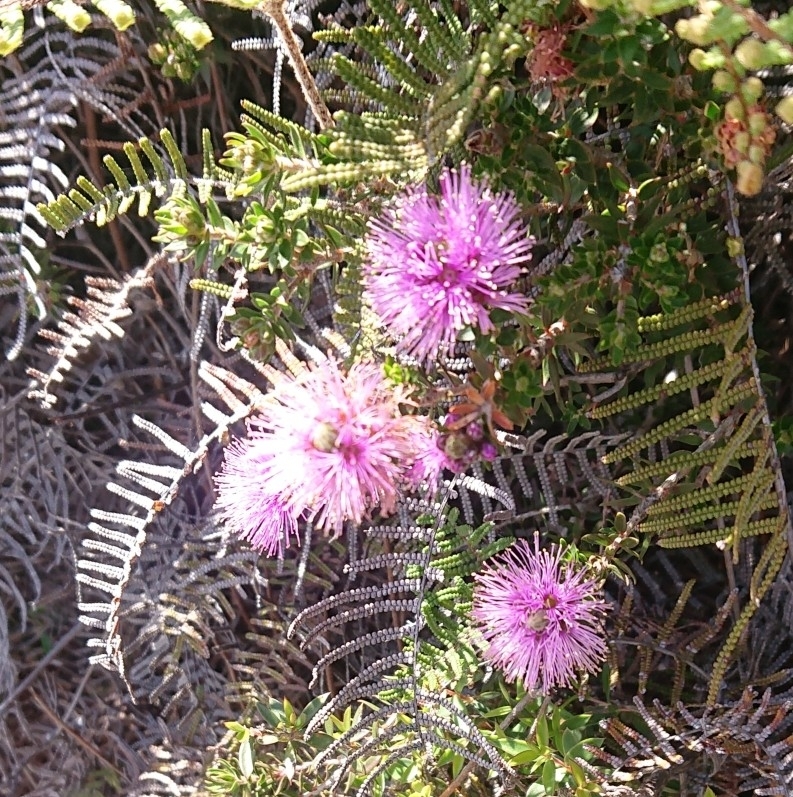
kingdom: Plantae
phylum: Tracheophyta
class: Magnoliopsida
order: Myrtales
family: Myrtaceae
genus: Melaleuca
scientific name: Melaleuca squamea
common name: Swamp melaleuca
